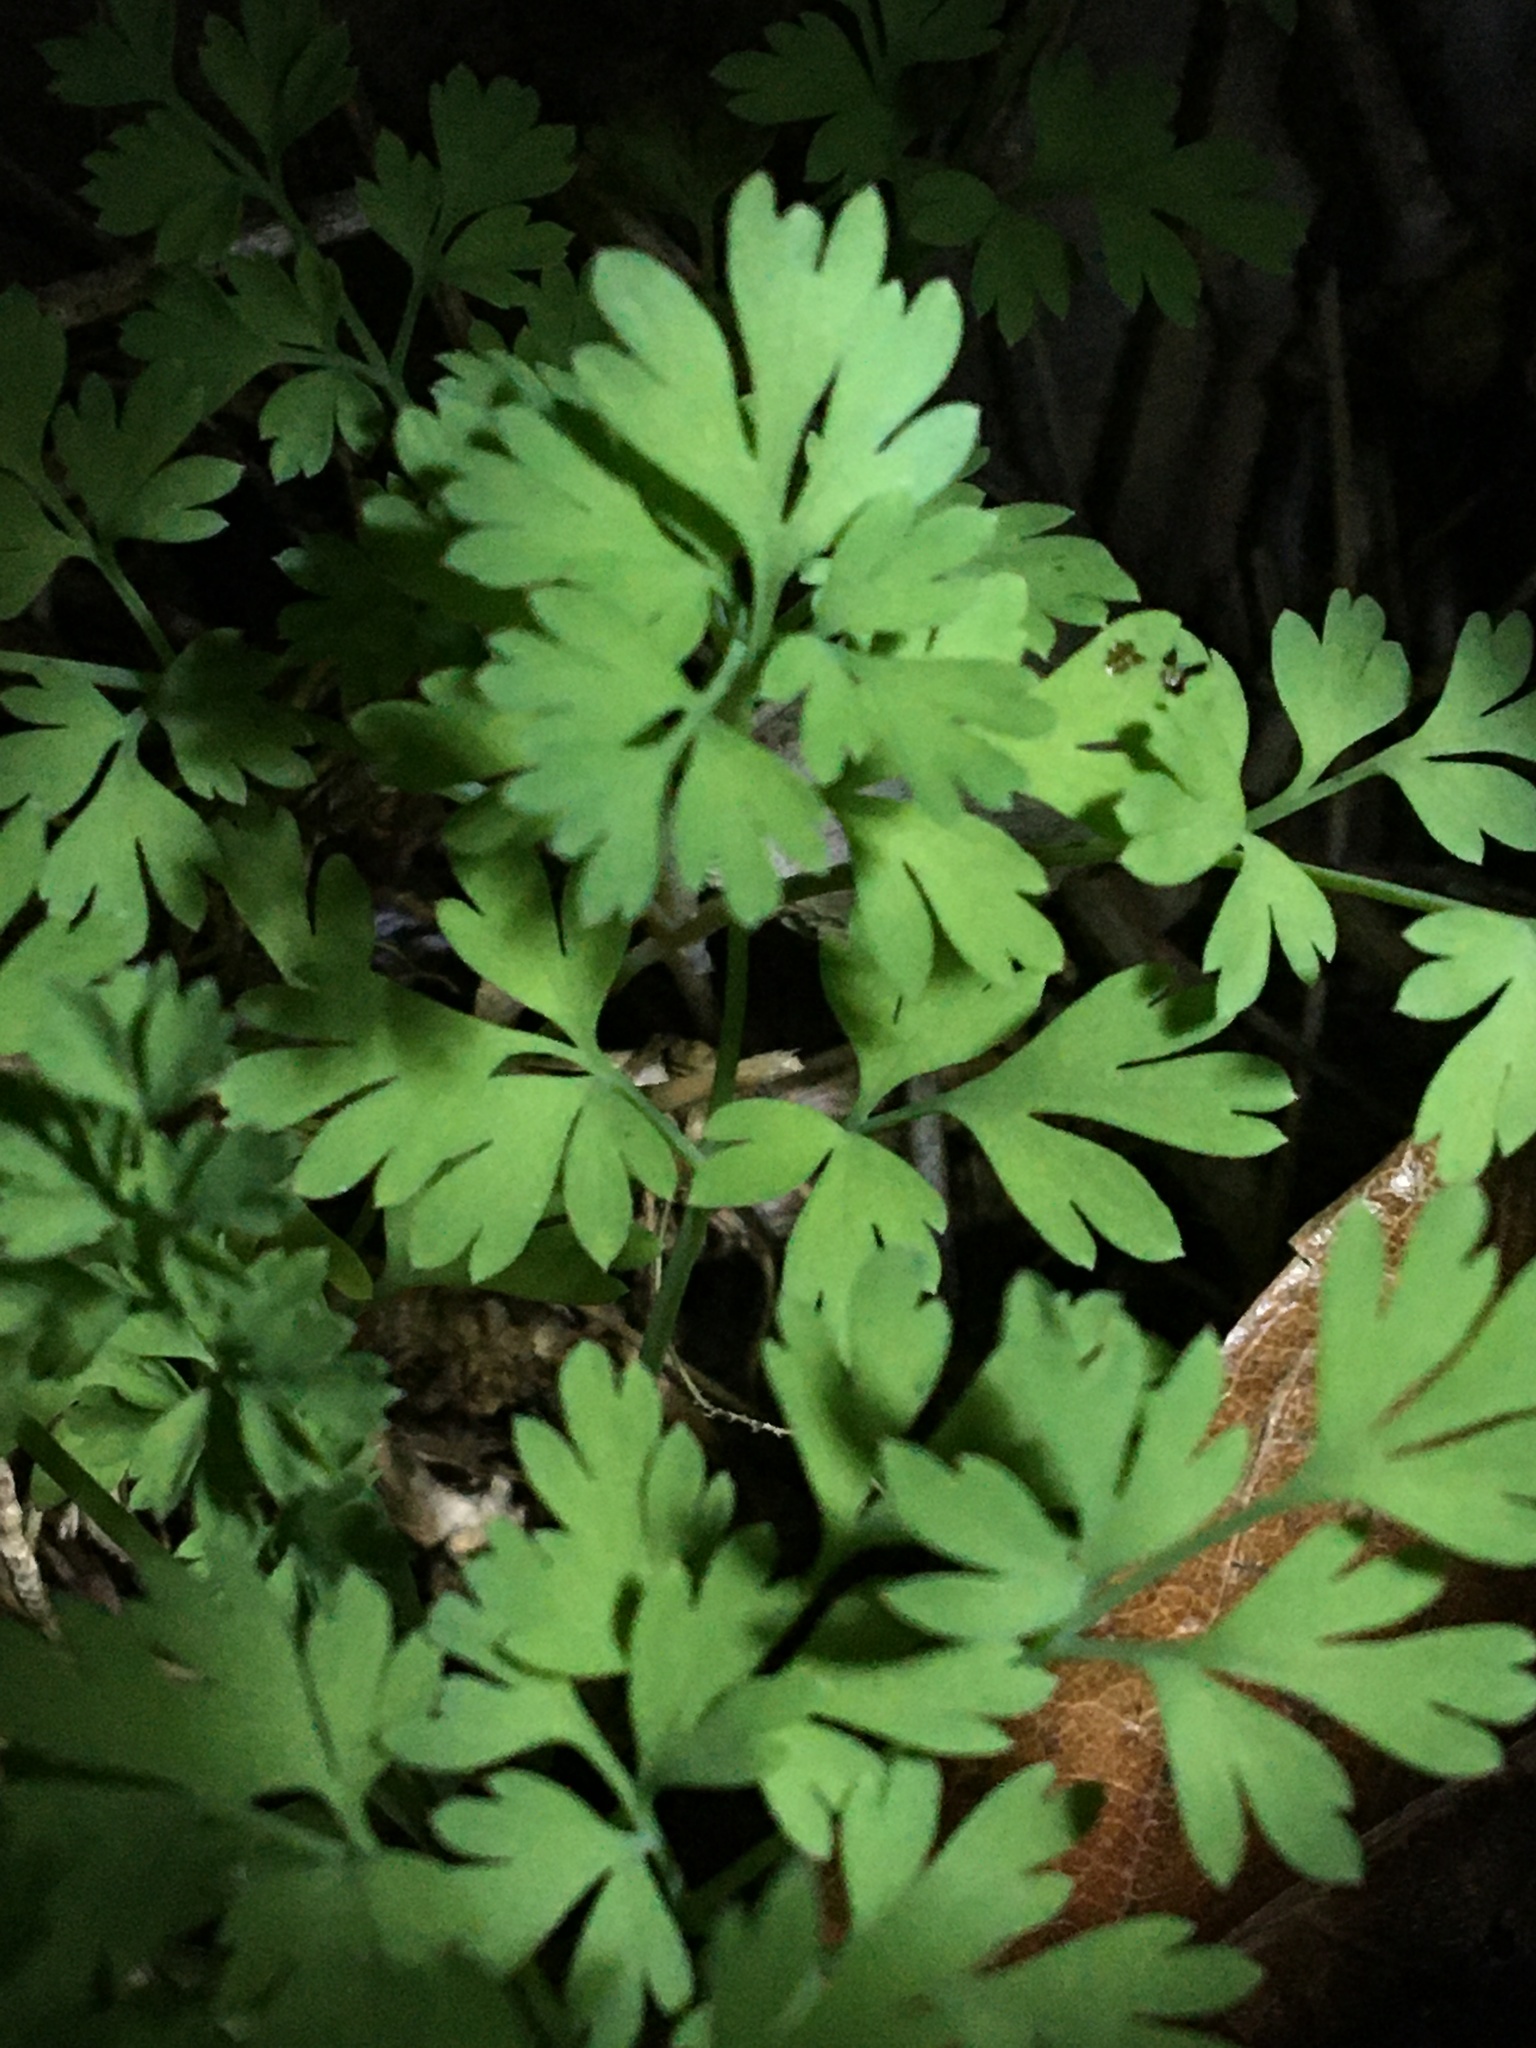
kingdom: Plantae
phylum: Tracheophyta
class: Magnoliopsida
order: Ranunculales
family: Papaveraceae
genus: Fumaria
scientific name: Fumaria muralis
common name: Common ramping-fumitory
